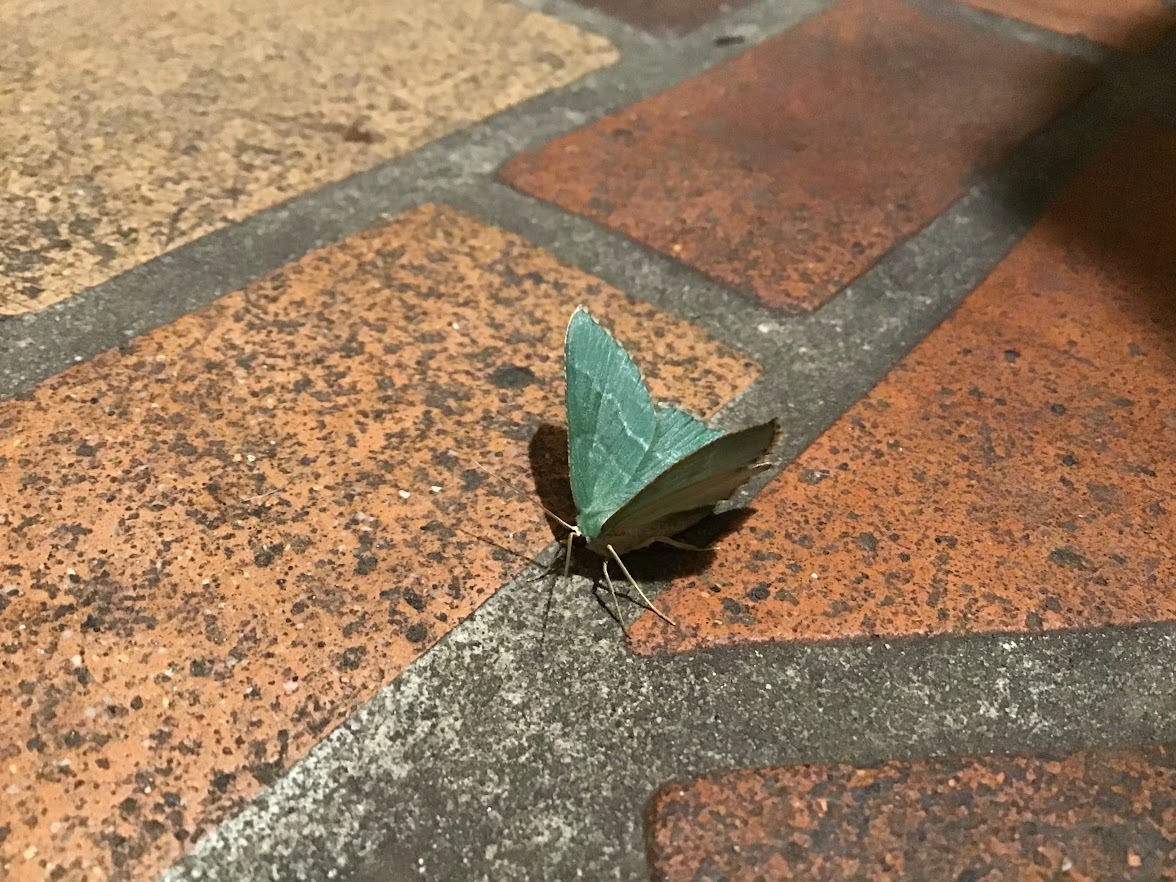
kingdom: Animalia
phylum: Arthropoda
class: Insecta
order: Lepidoptera
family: Geometridae
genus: Hemithea
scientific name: Hemithea aestivaria
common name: Common emerald
